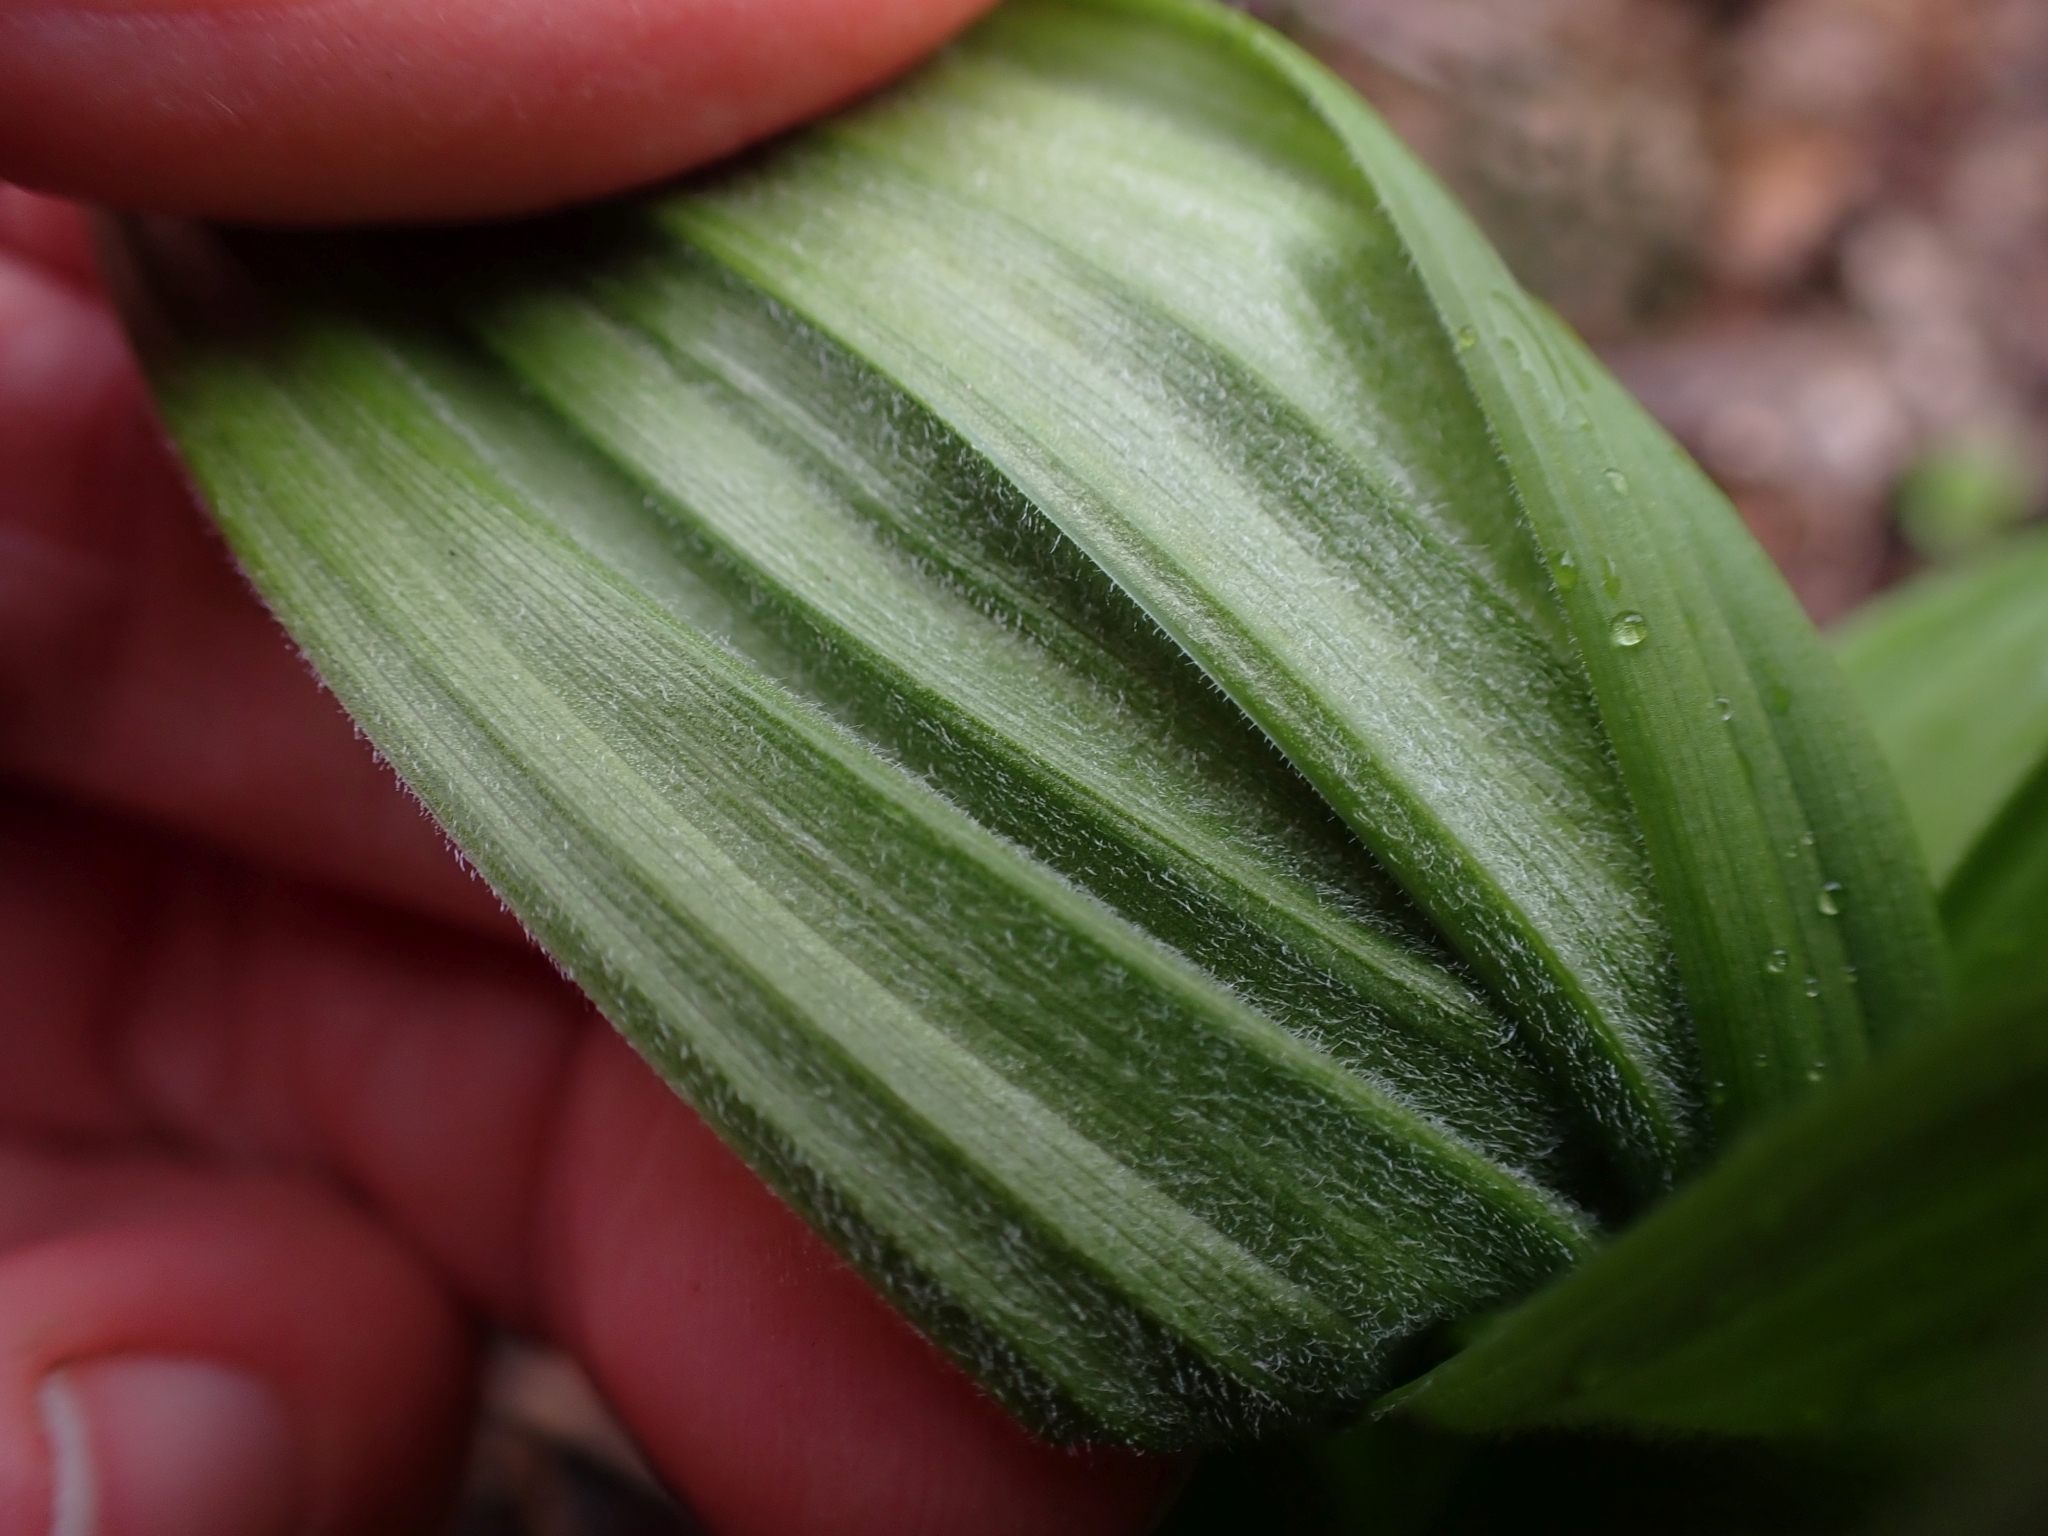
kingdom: Plantae
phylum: Tracheophyta
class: Liliopsida
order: Liliales
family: Melanthiaceae
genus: Veratrum
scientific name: Veratrum viride
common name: American false hellebore
